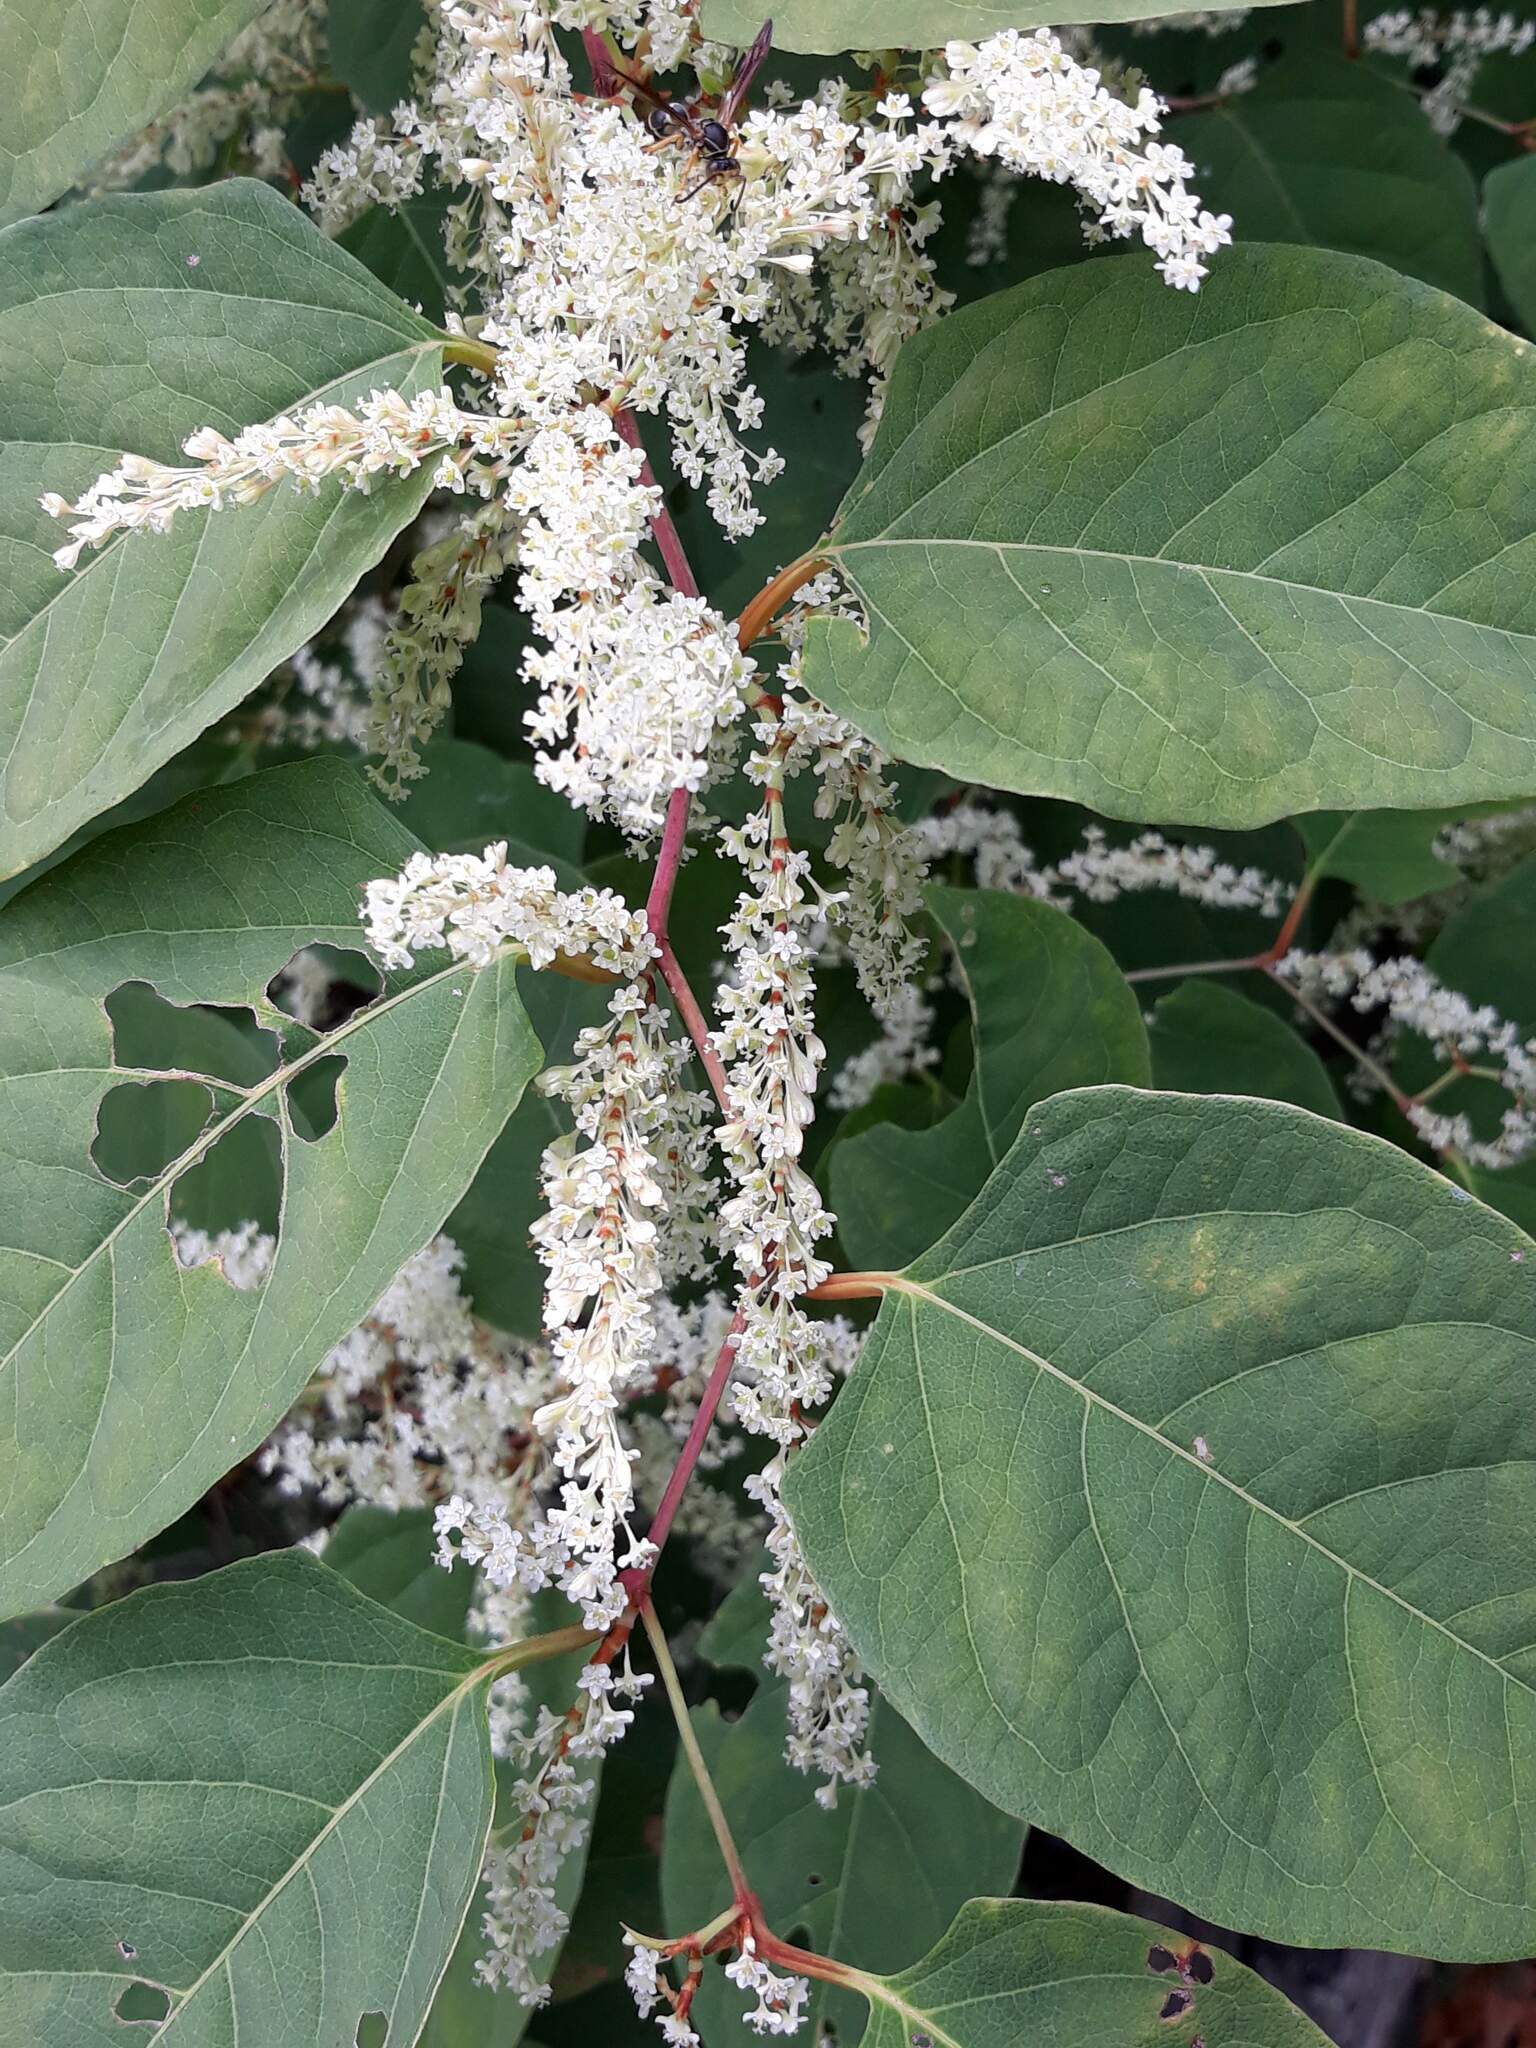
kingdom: Plantae
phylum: Tracheophyta
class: Magnoliopsida
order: Caryophyllales
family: Polygonaceae
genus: Reynoutria
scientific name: Reynoutria japonica
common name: Japanese knotweed
